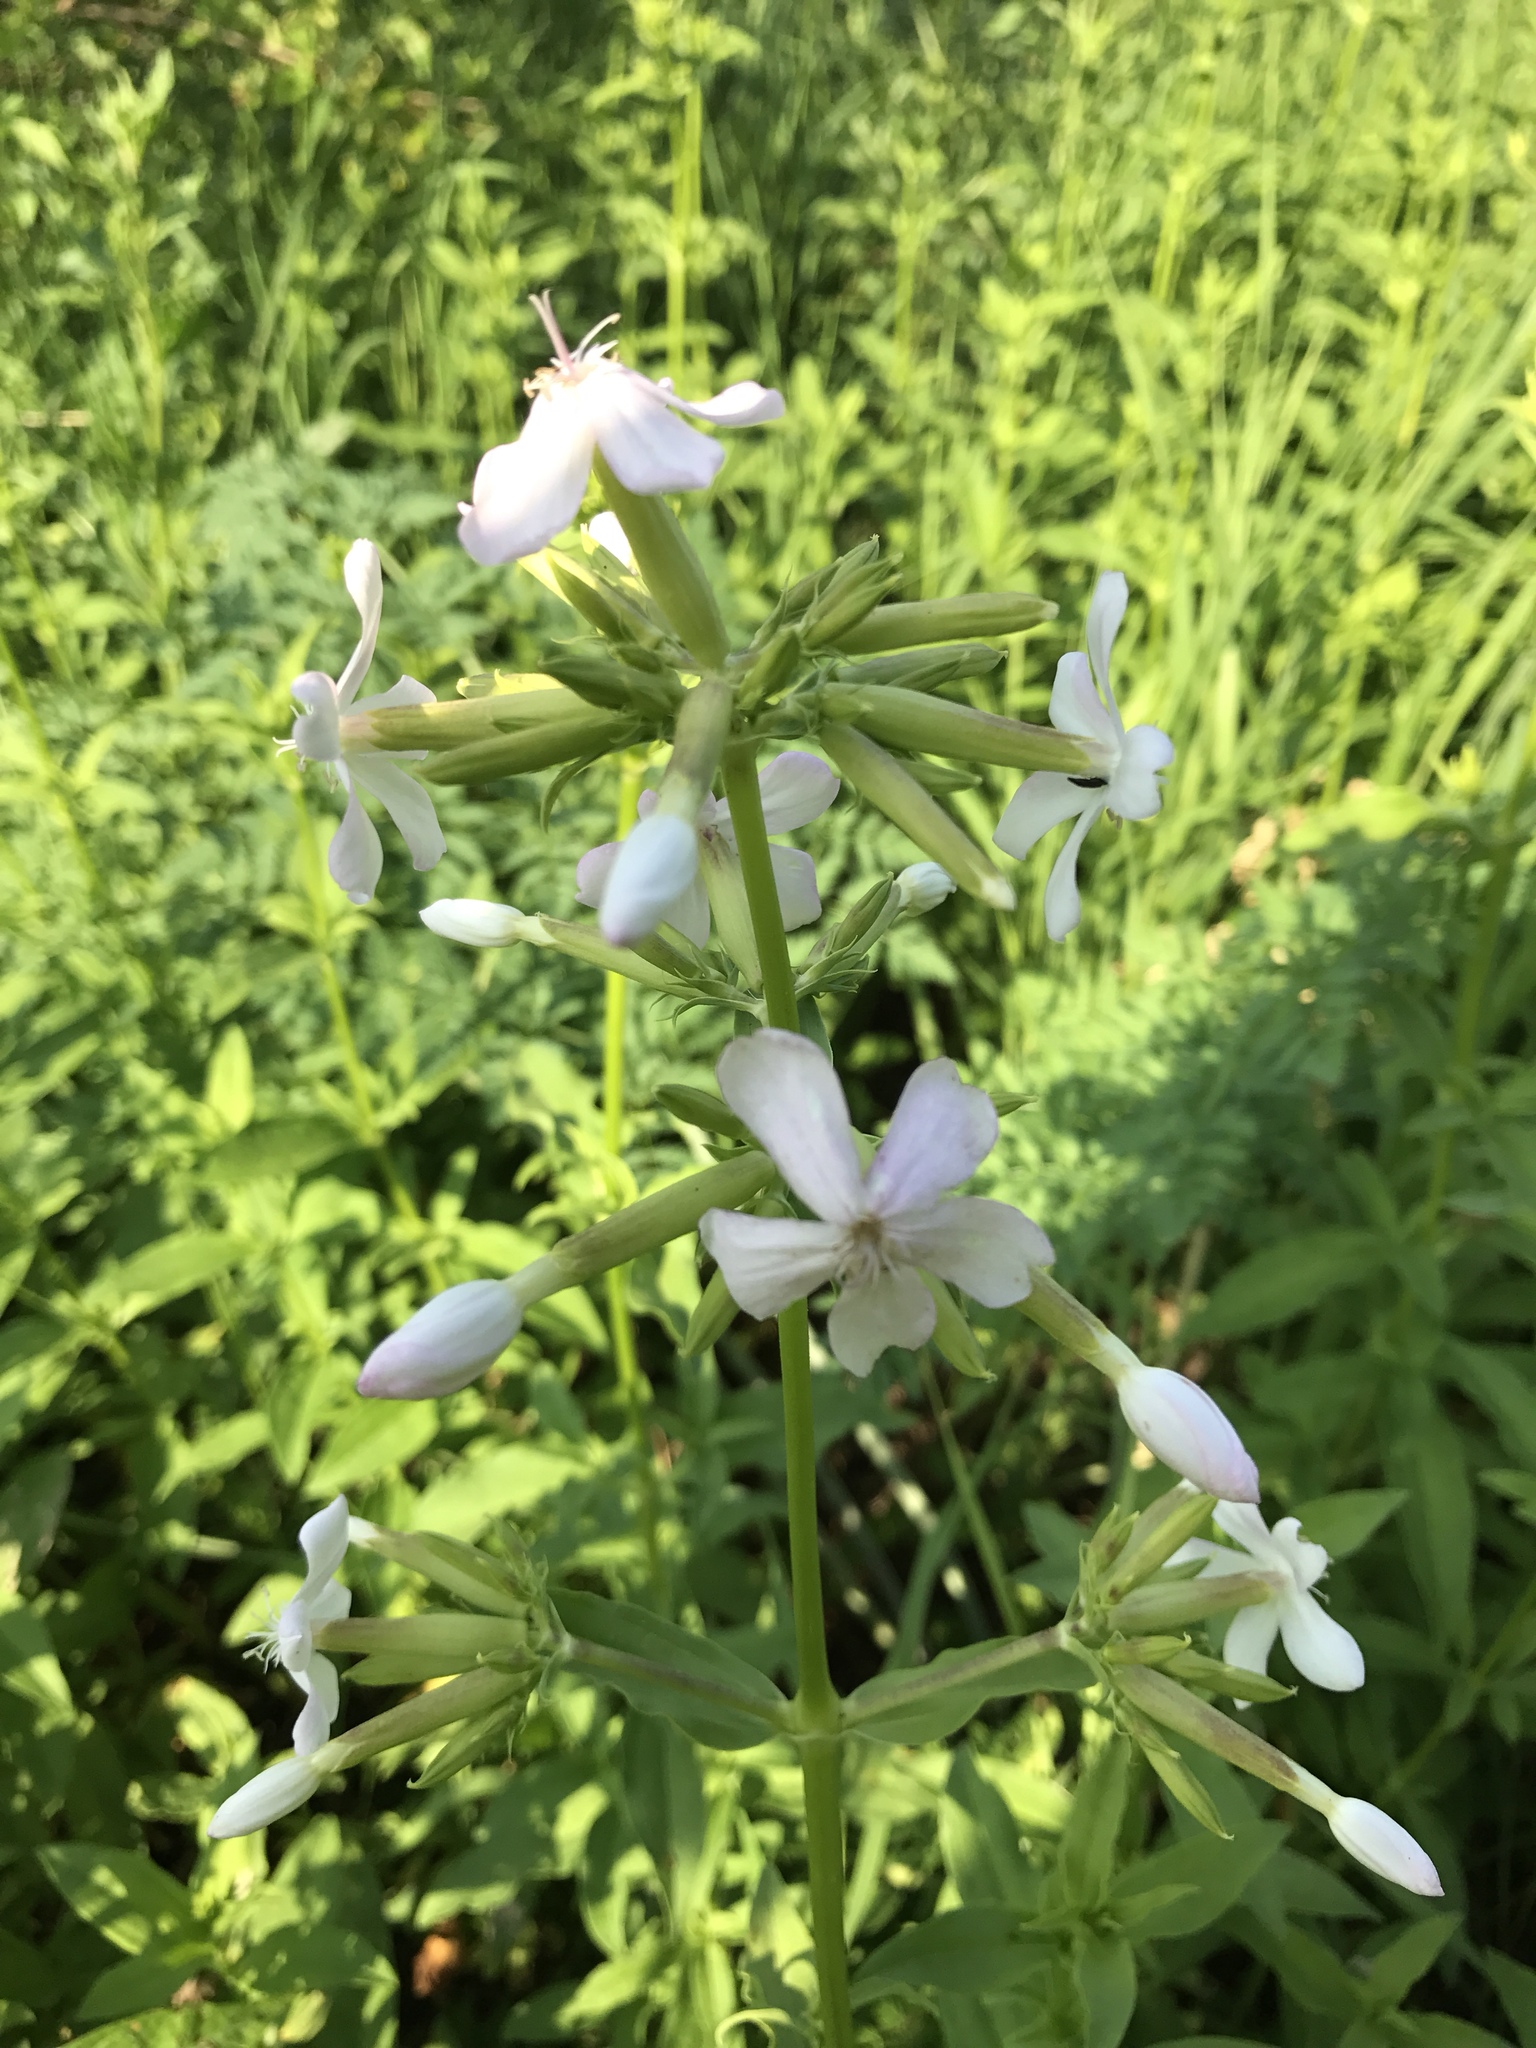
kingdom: Plantae
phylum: Tracheophyta
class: Magnoliopsida
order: Caryophyllales
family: Caryophyllaceae
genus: Saponaria
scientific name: Saponaria officinalis
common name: Soapwort
